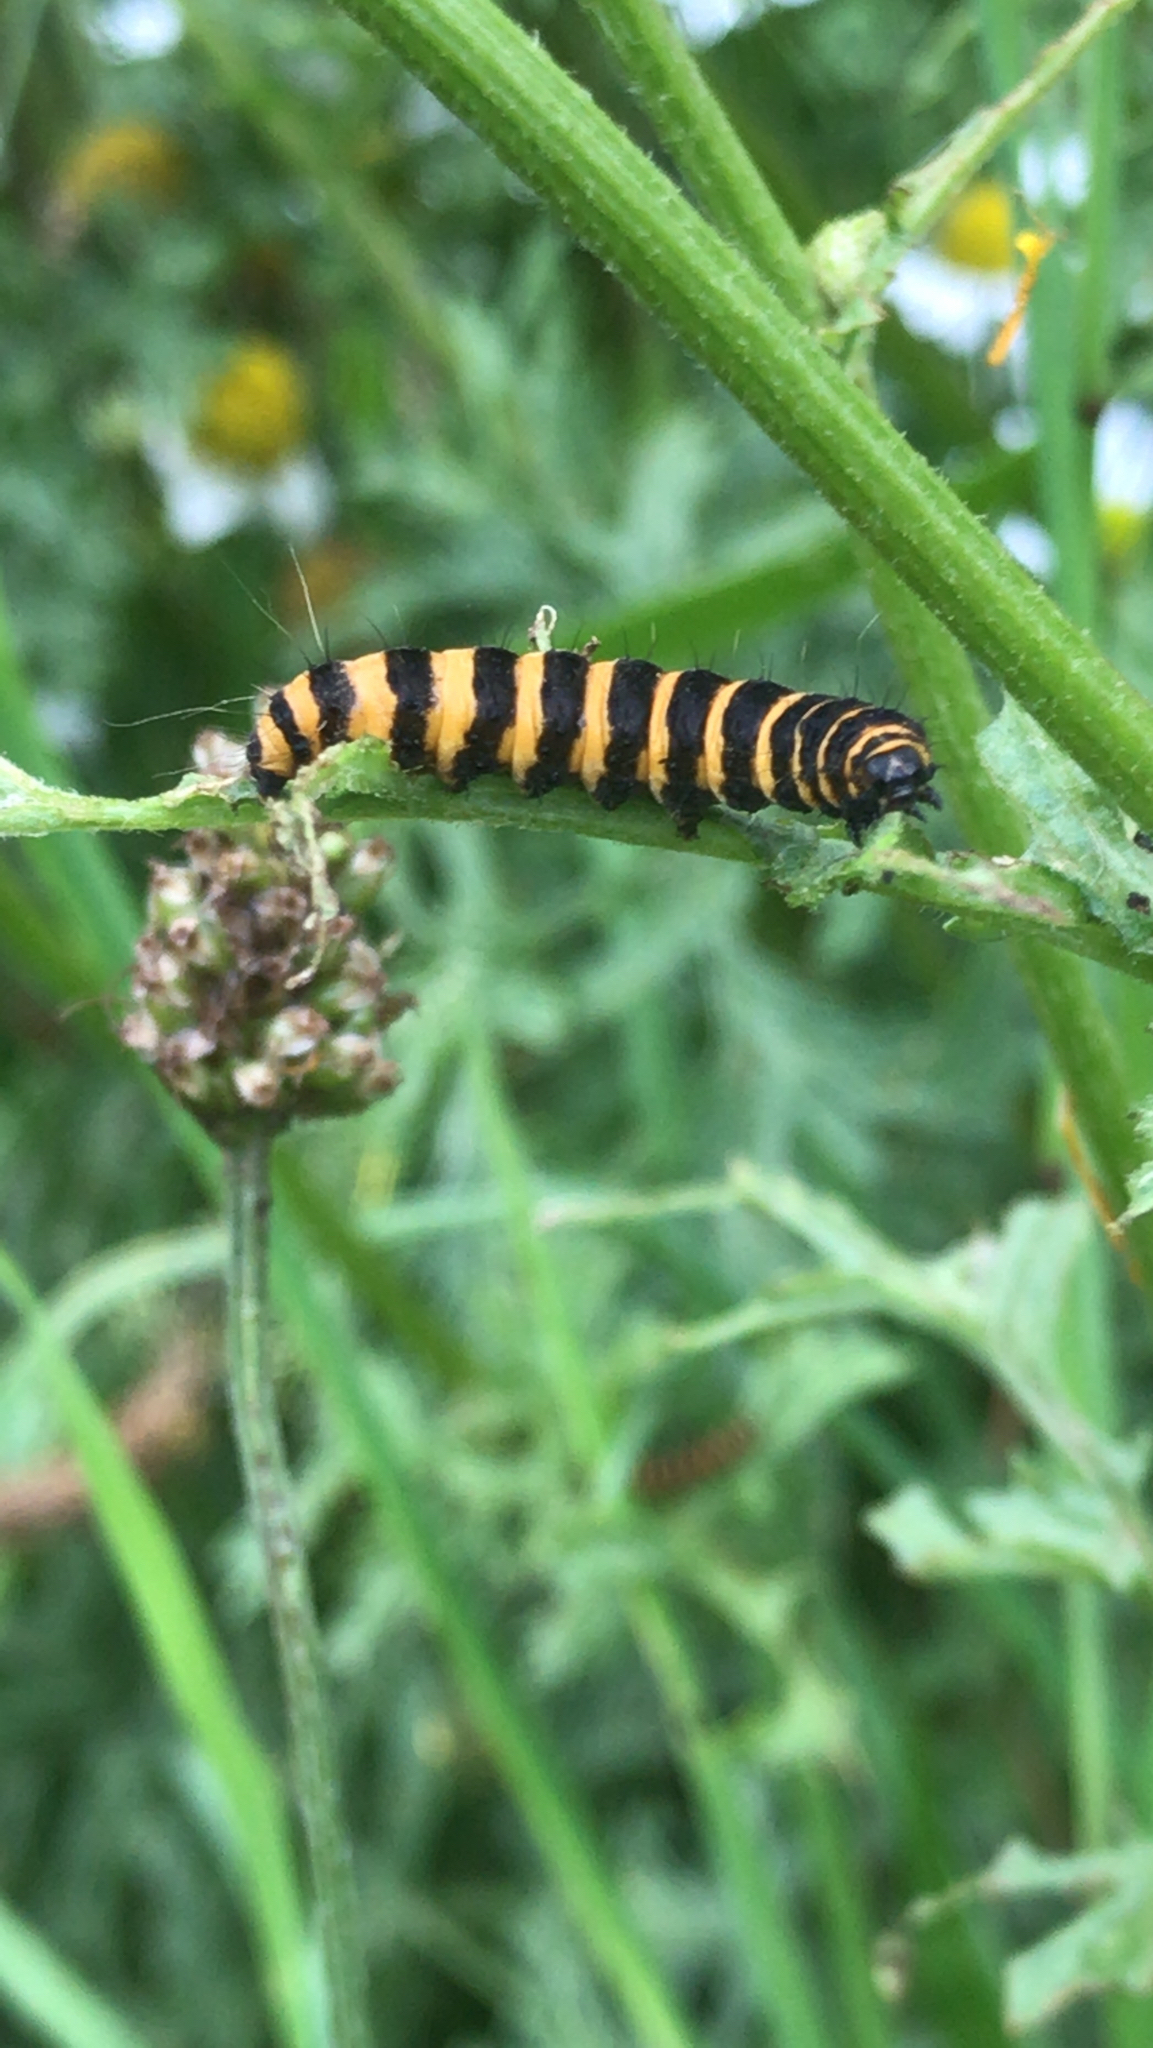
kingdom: Animalia
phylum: Arthropoda
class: Insecta
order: Lepidoptera
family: Erebidae
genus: Tyria
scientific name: Tyria jacobaeae
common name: Cinnabar
